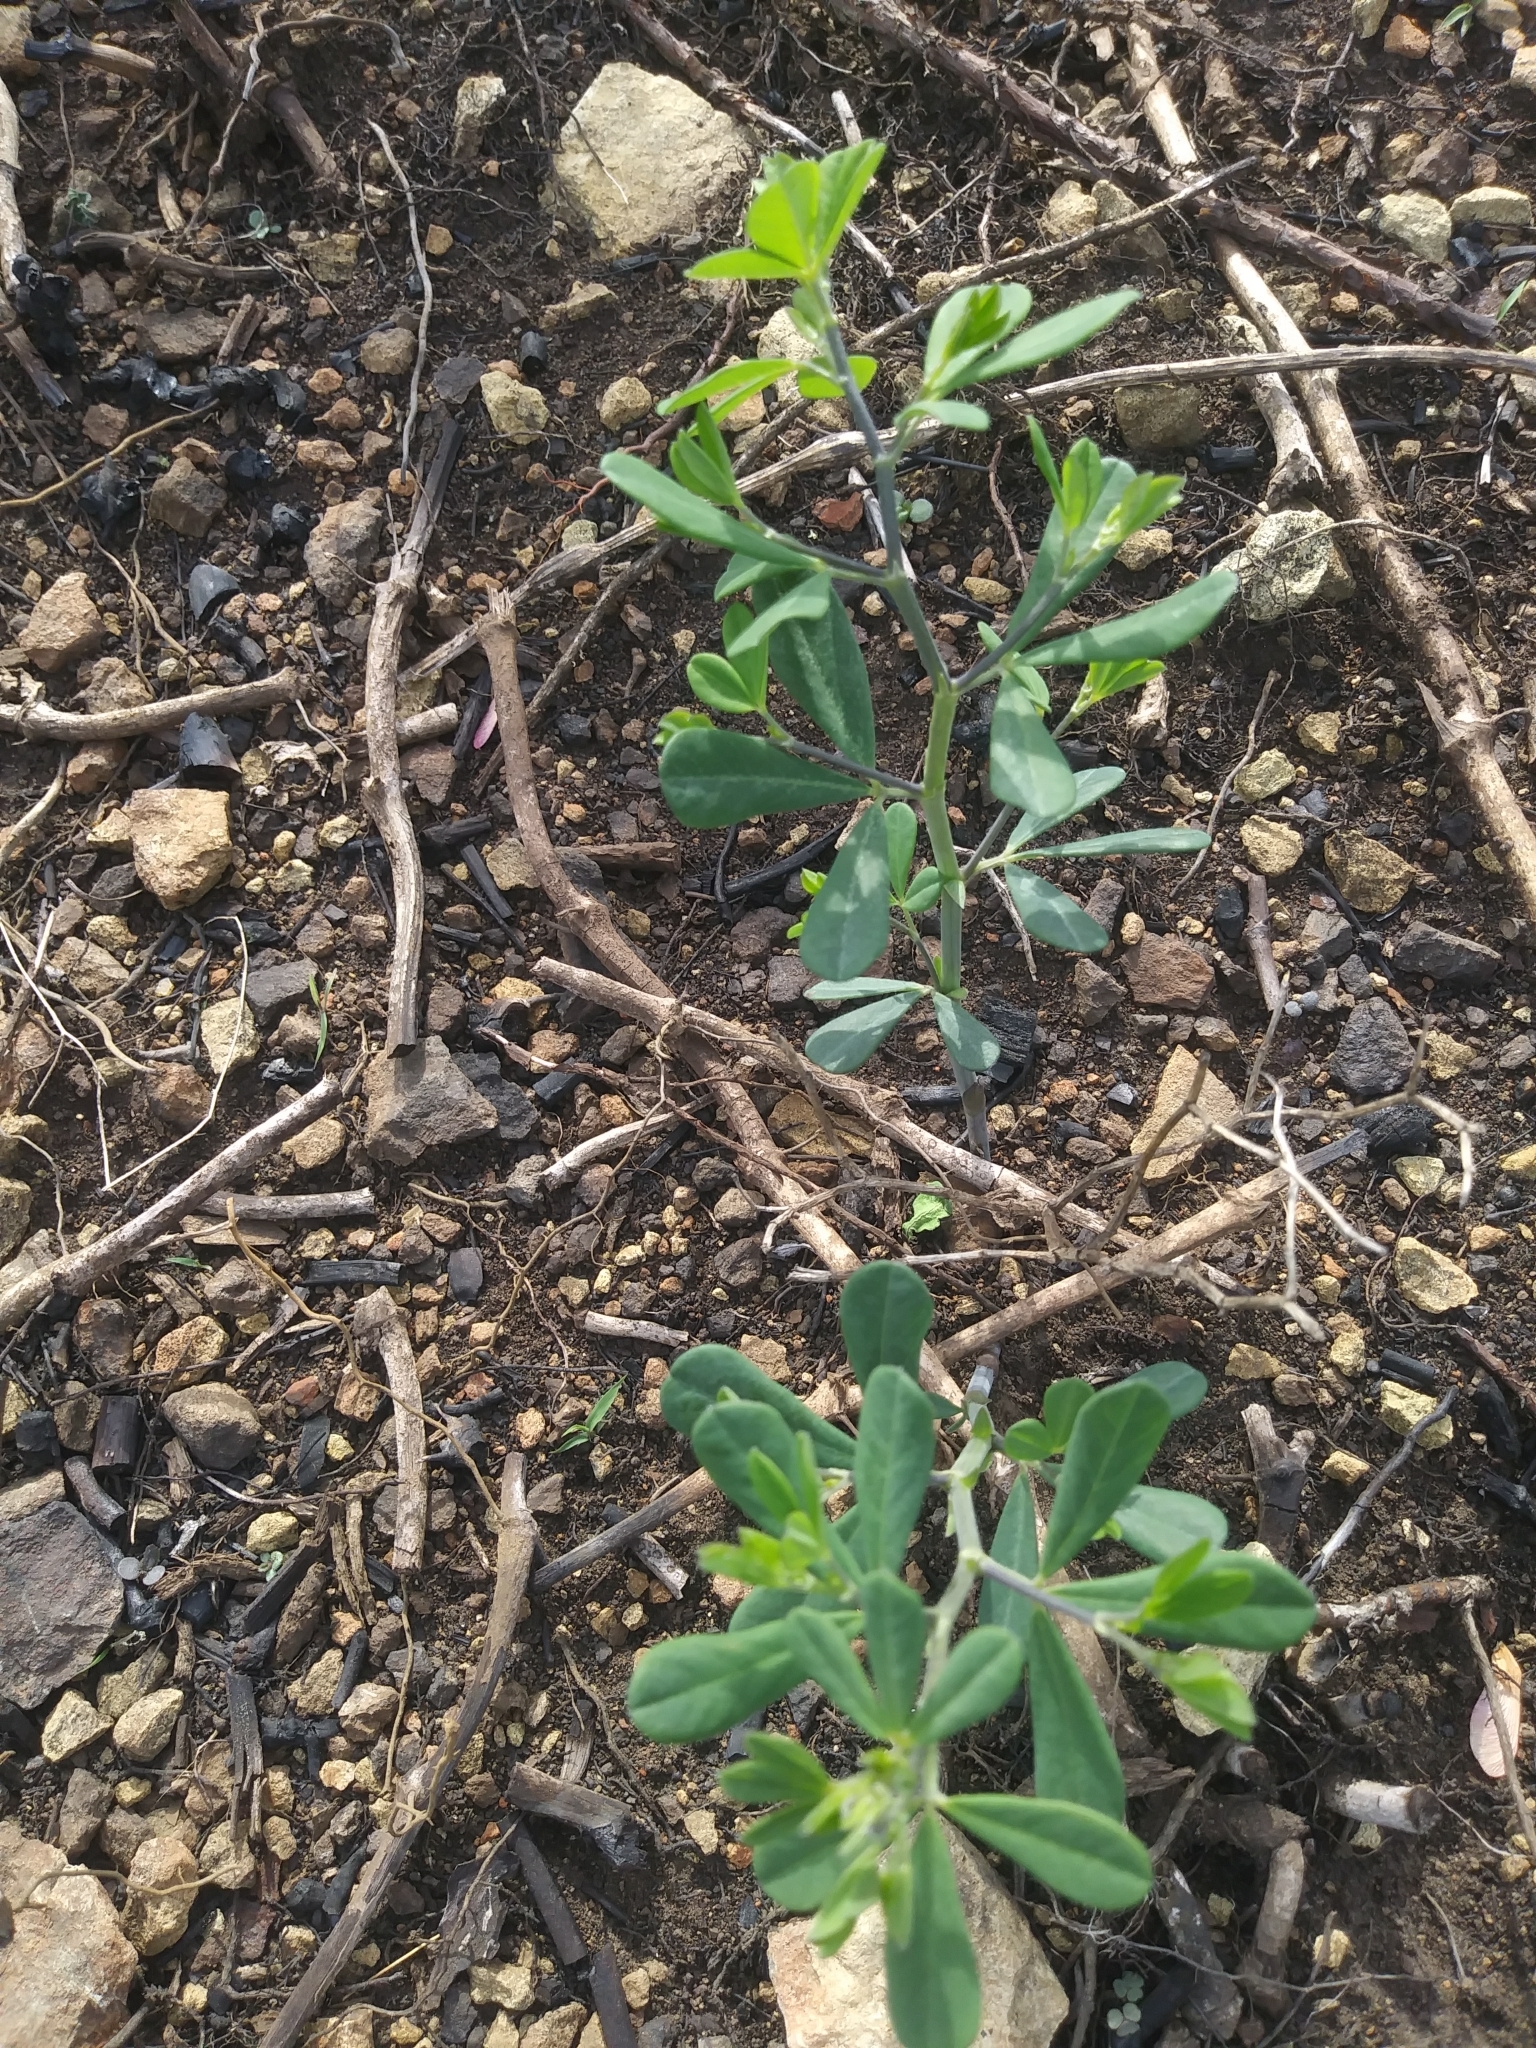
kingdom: Plantae
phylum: Tracheophyta
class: Magnoliopsida
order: Fabales
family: Fabaceae
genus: Baptisia
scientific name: Baptisia tinctoria
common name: Wild indigo
